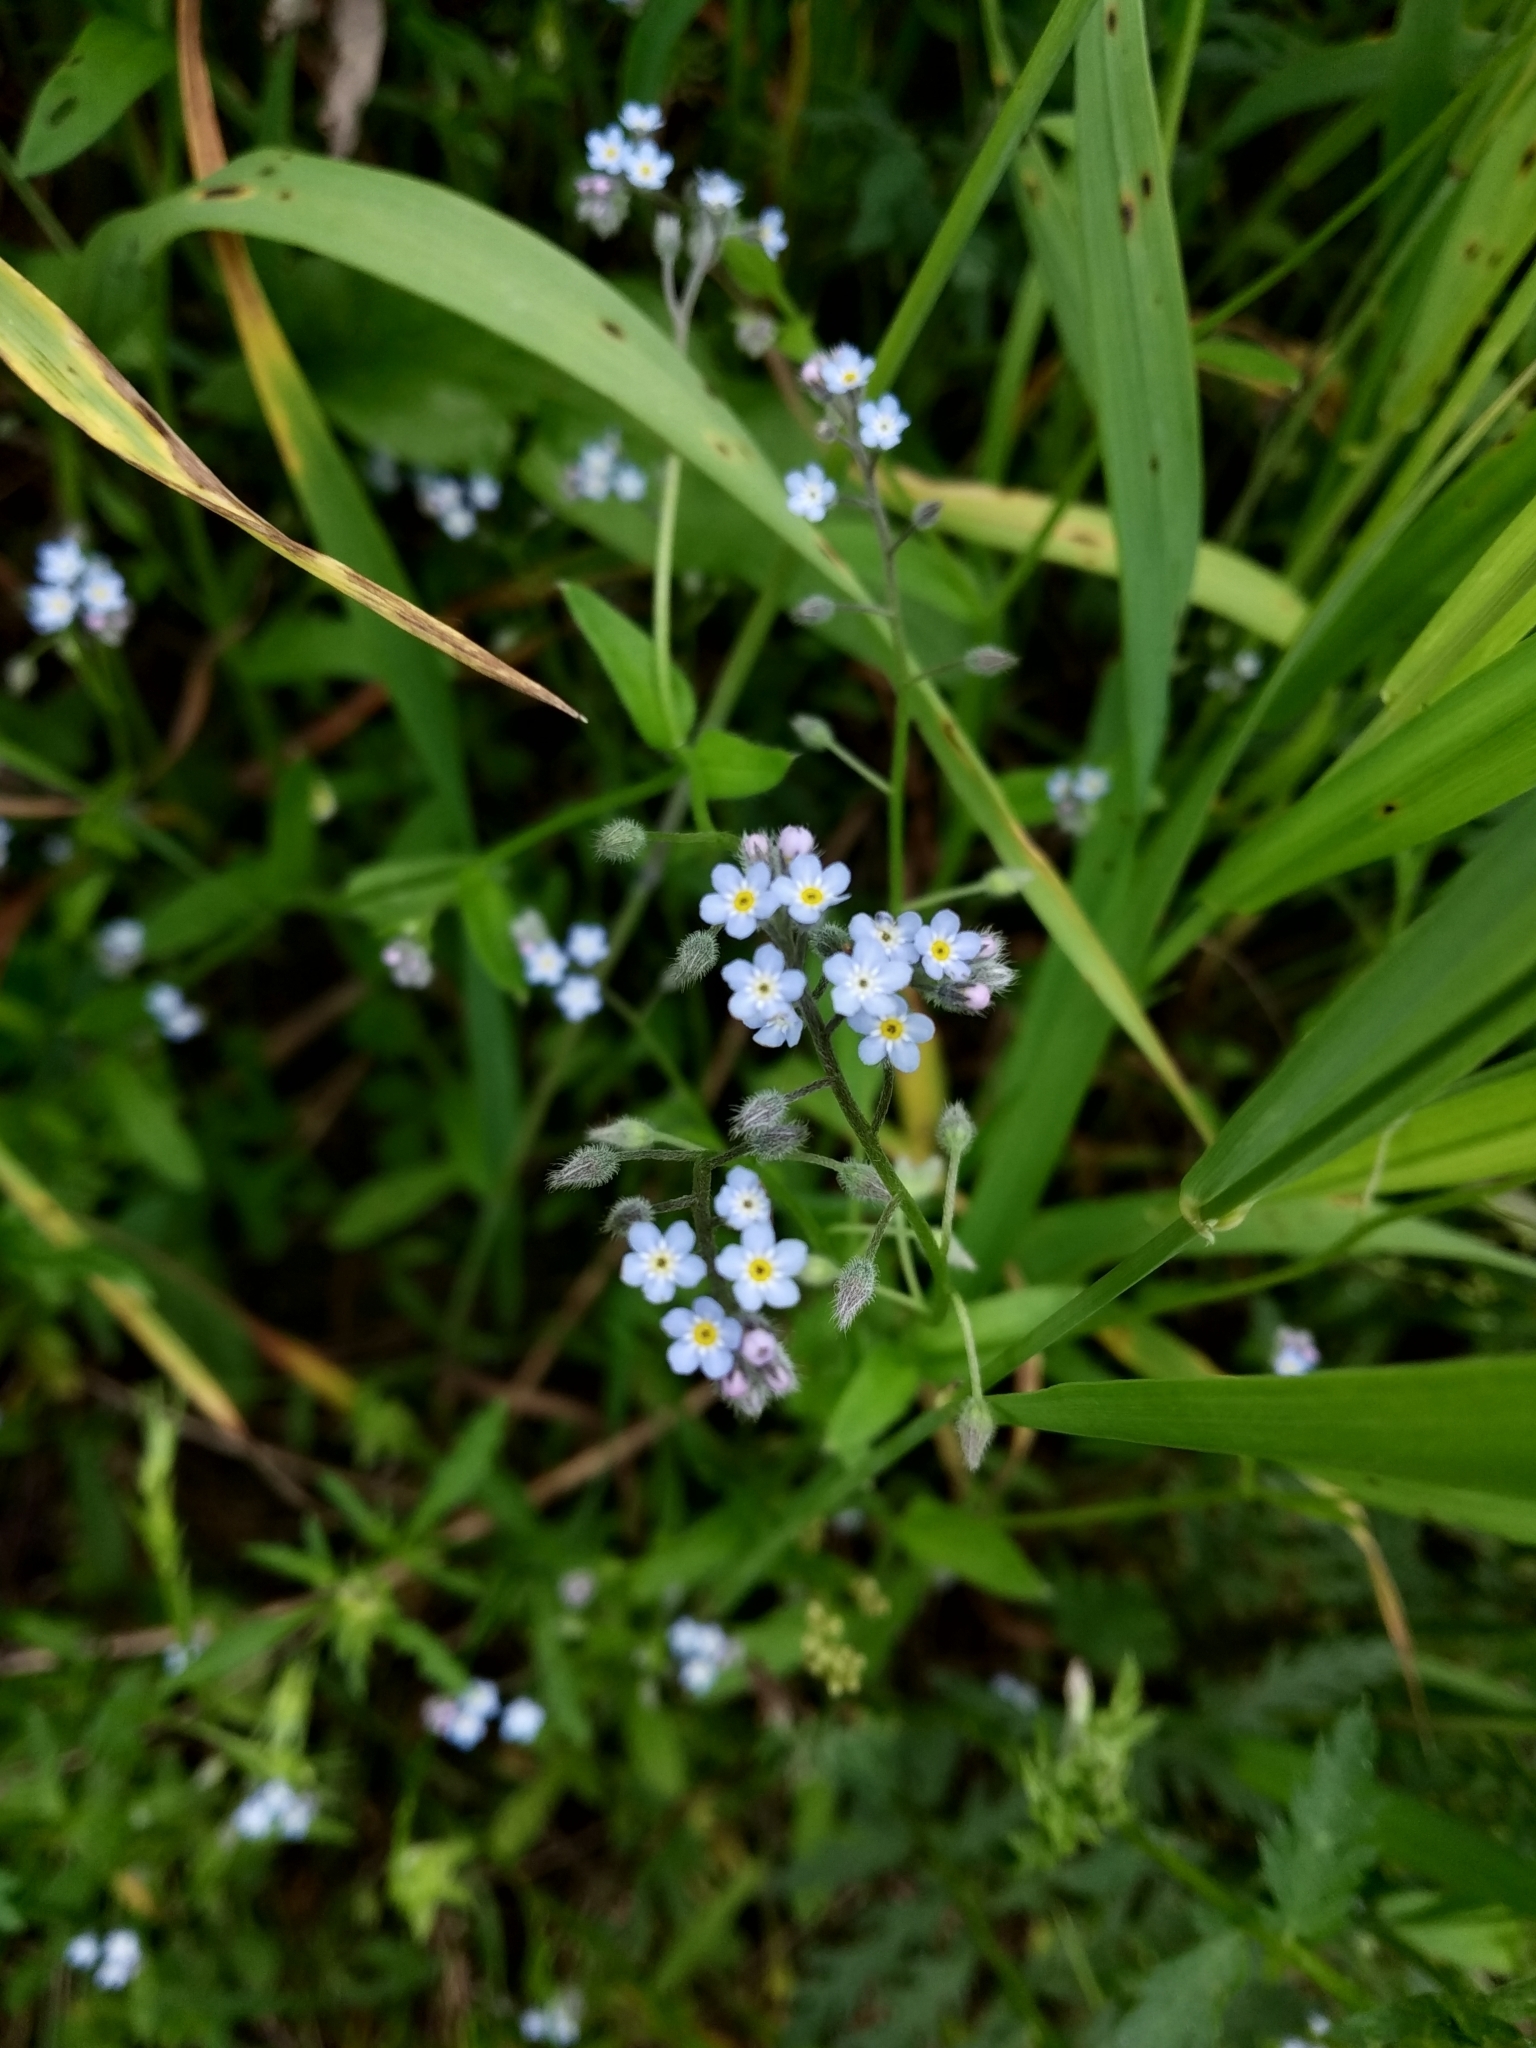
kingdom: Plantae
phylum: Tracheophyta
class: Magnoliopsida
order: Boraginales
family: Boraginaceae
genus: Myosotis
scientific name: Myosotis arvensis
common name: Field forget-me-not
